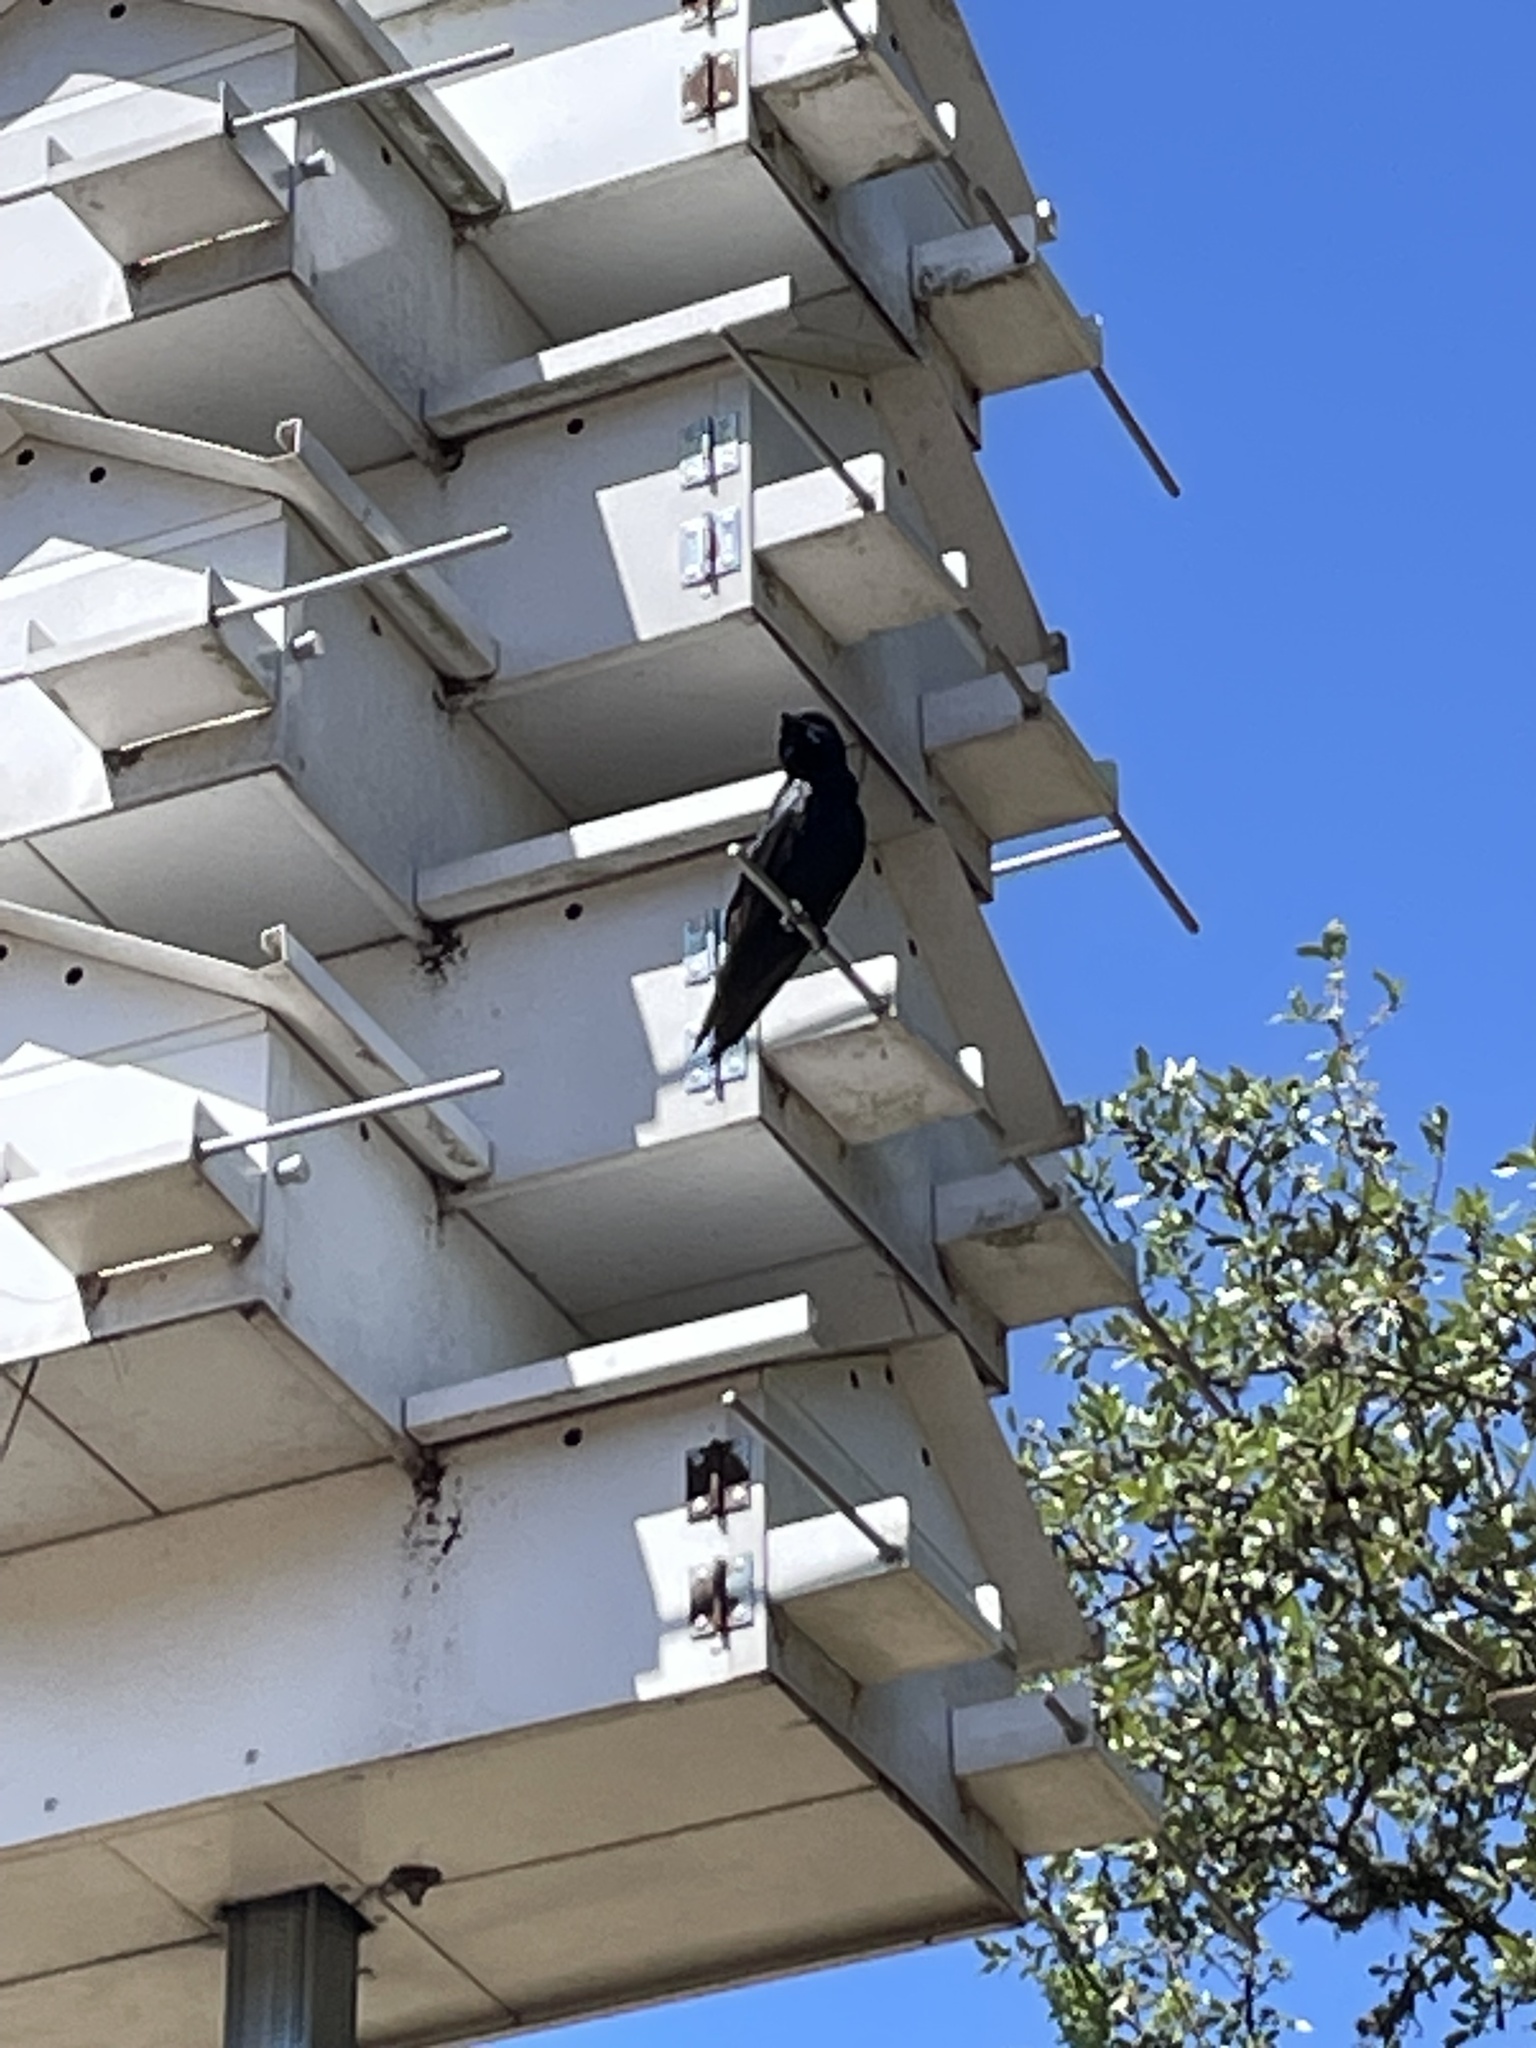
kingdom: Animalia
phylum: Chordata
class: Aves
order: Passeriformes
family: Hirundinidae
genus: Progne
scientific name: Progne subis
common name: Purple martin
